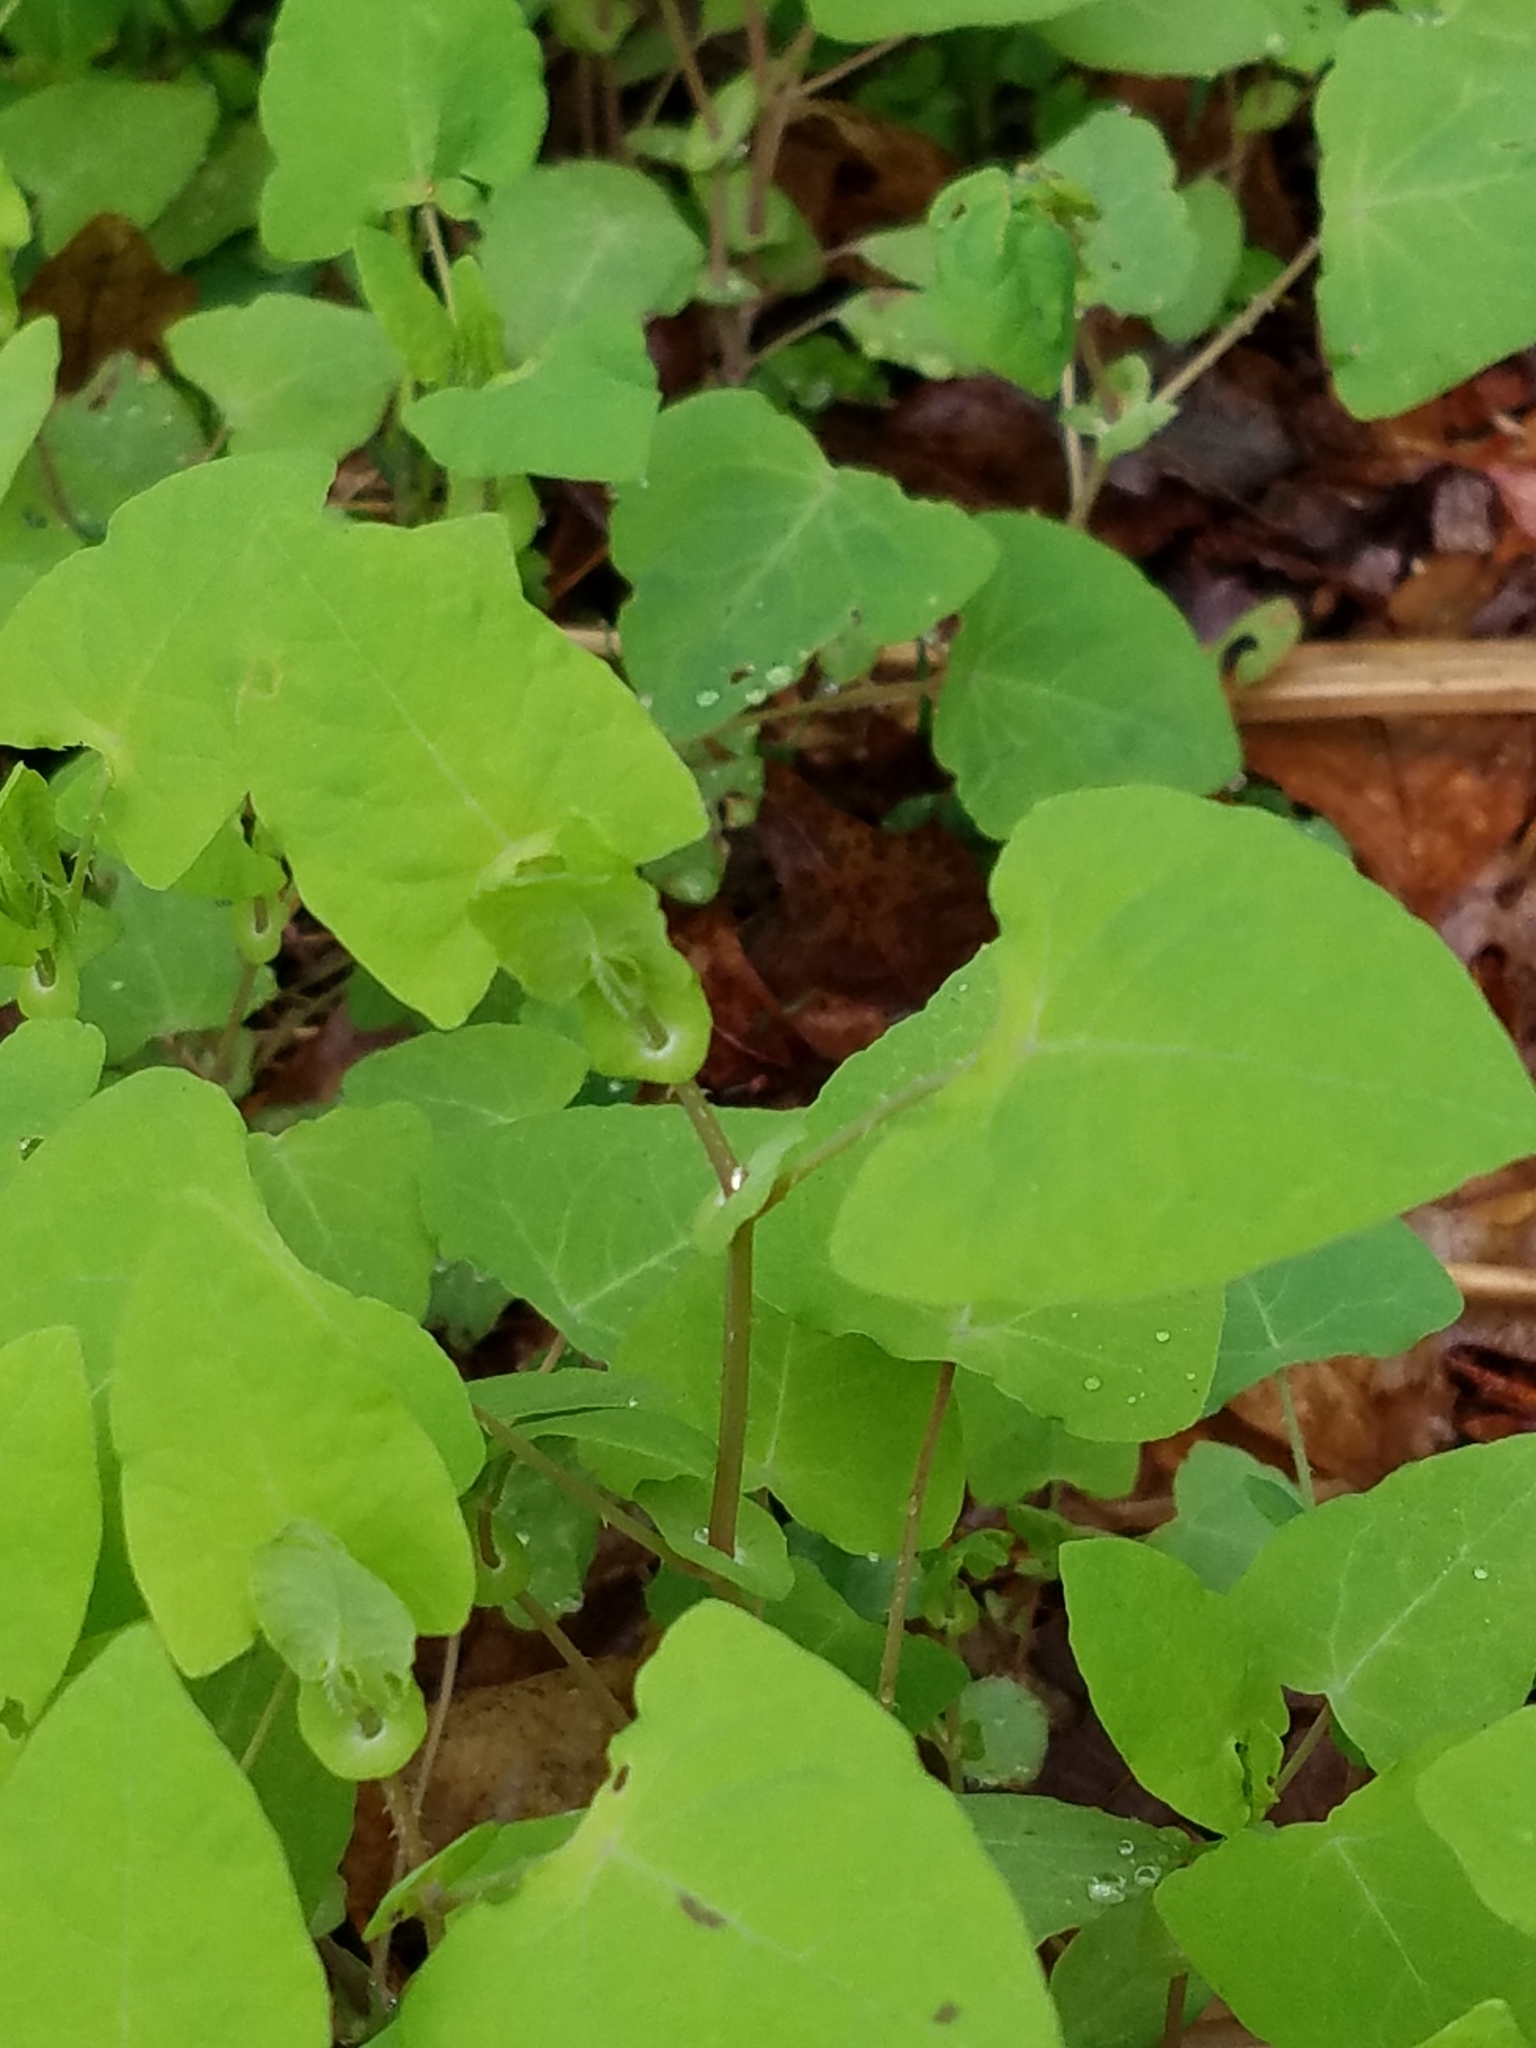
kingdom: Plantae
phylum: Tracheophyta
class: Magnoliopsida
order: Caryophyllales
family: Polygonaceae
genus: Persicaria
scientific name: Persicaria perfoliata
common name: Asiatic tearthumb
